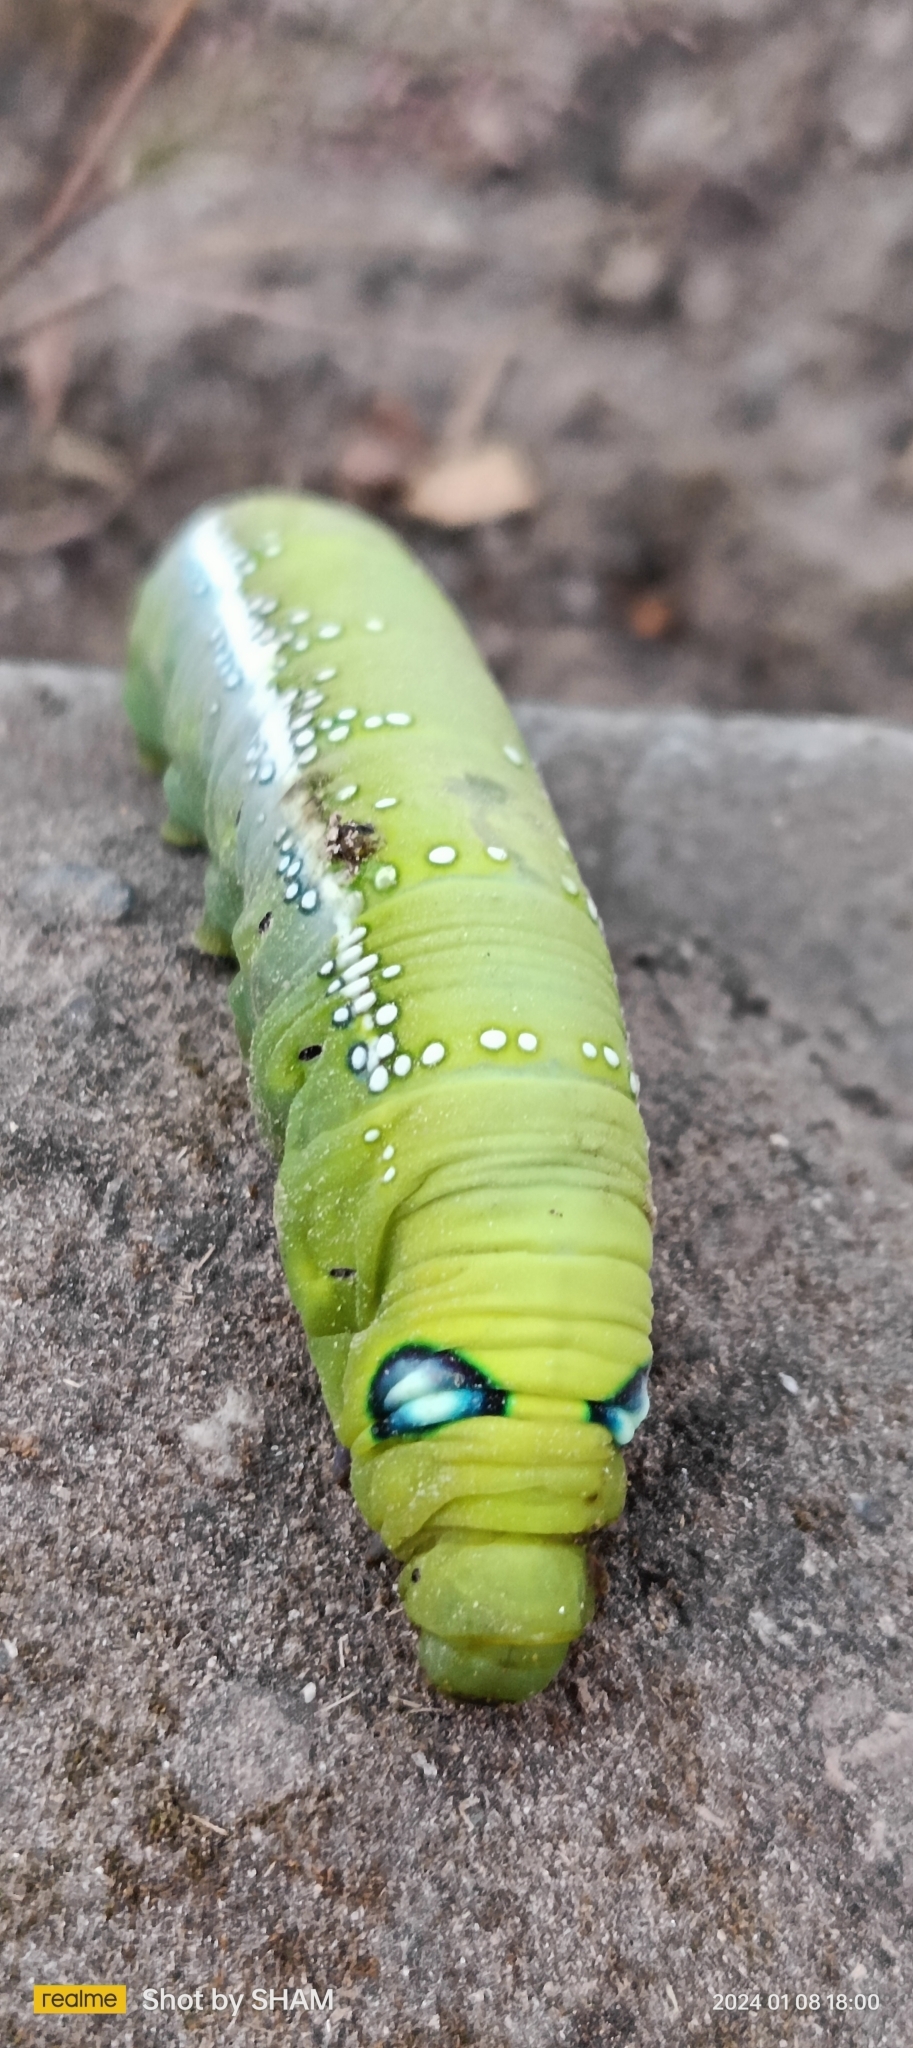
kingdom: Animalia
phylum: Arthropoda
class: Insecta
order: Lepidoptera
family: Sphingidae
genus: Daphnis
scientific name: Daphnis nerii
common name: Oleander hawk-moth
